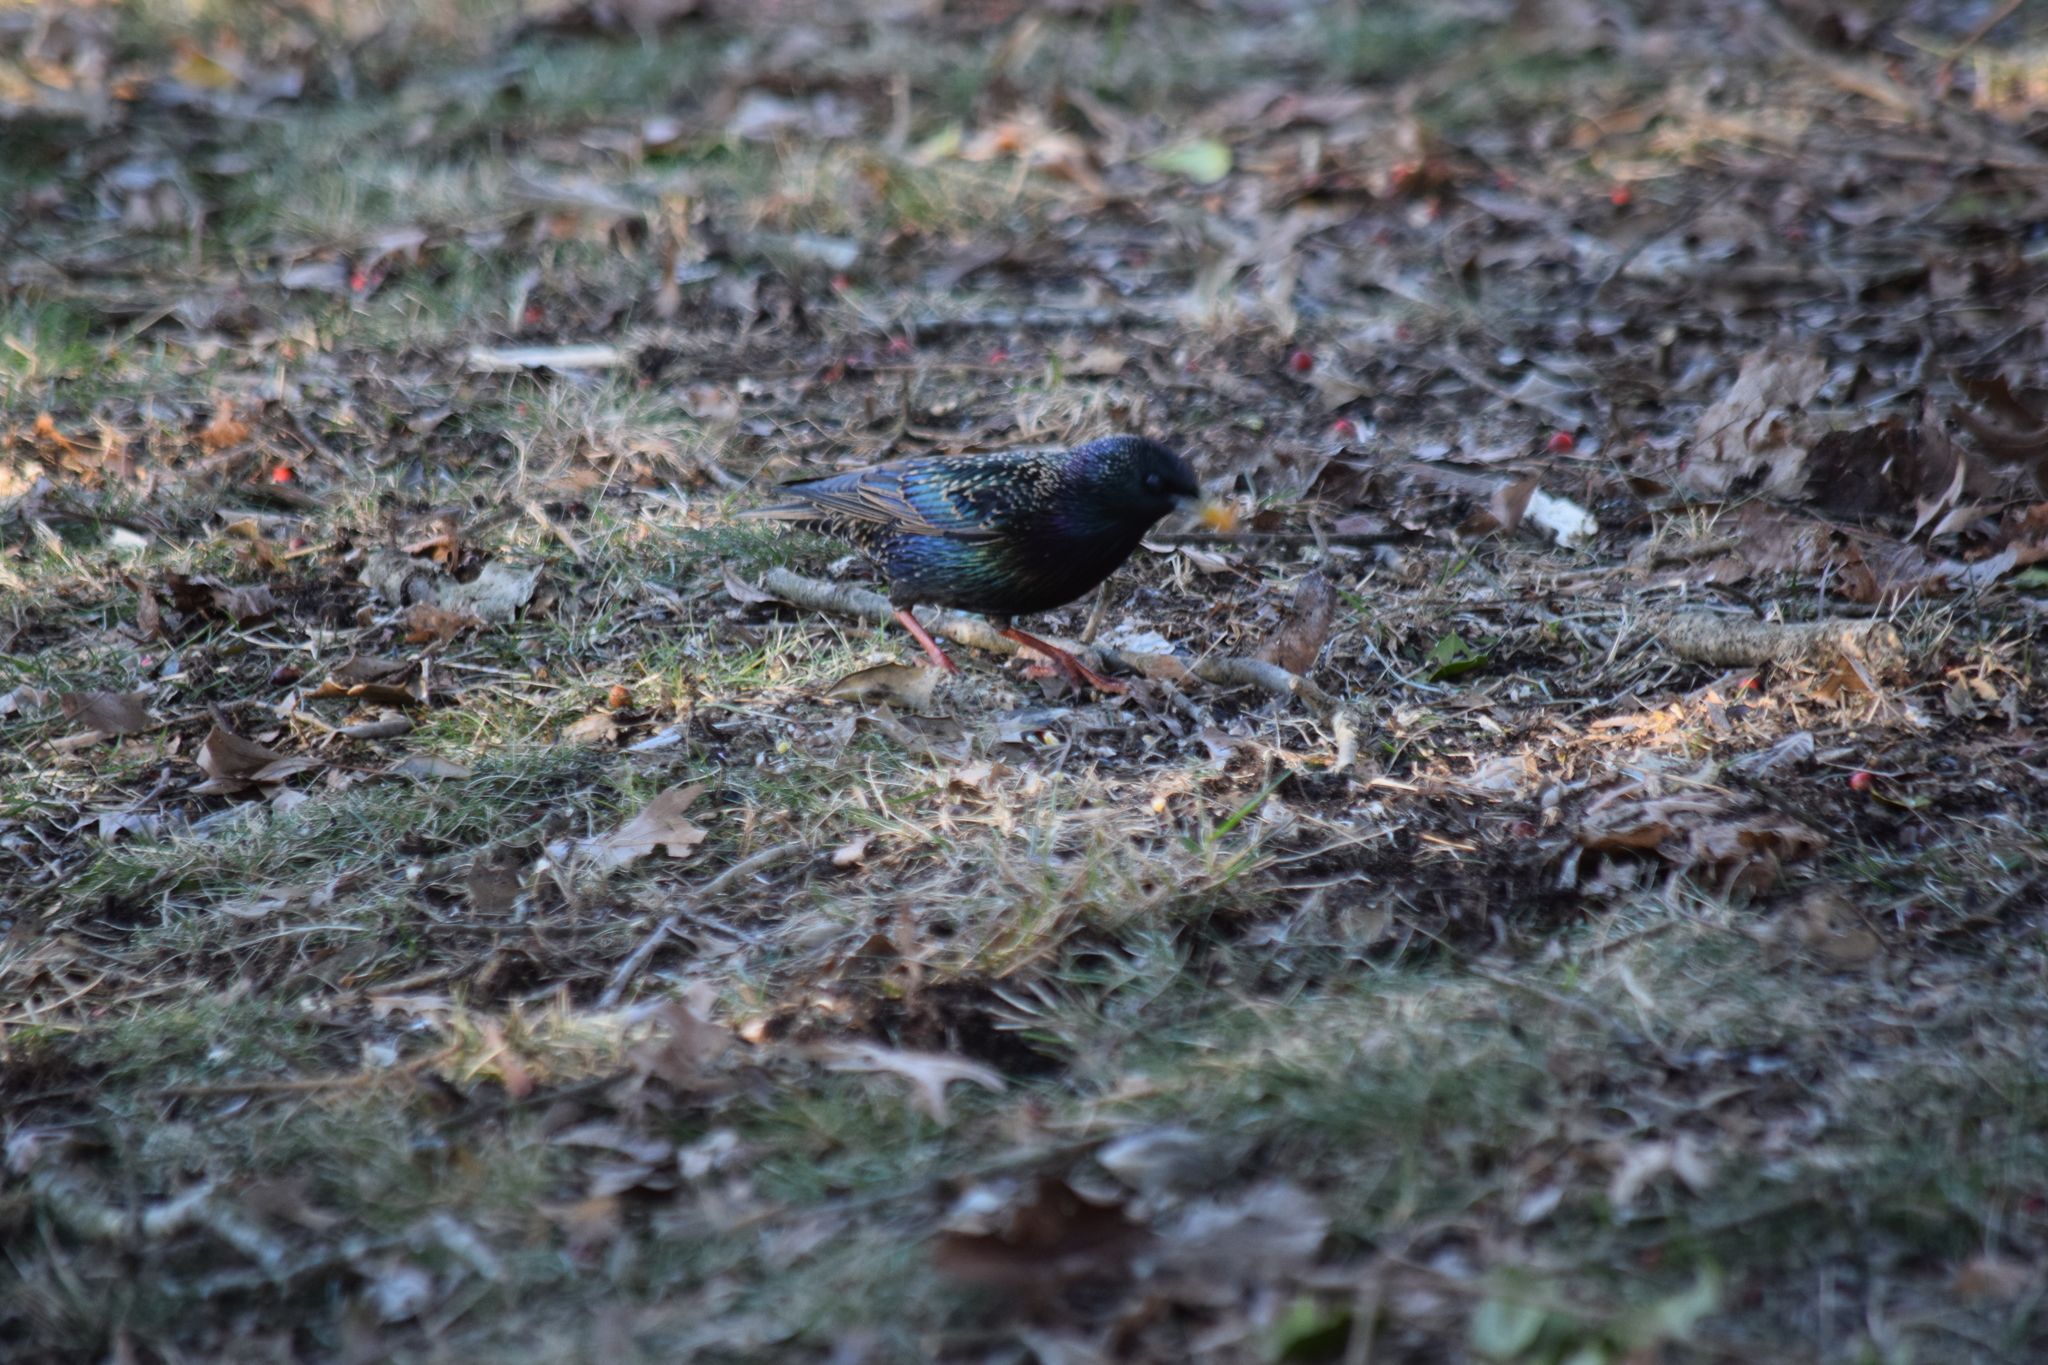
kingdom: Animalia
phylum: Chordata
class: Aves
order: Passeriformes
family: Sturnidae
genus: Sturnus
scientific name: Sturnus vulgaris
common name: Common starling
